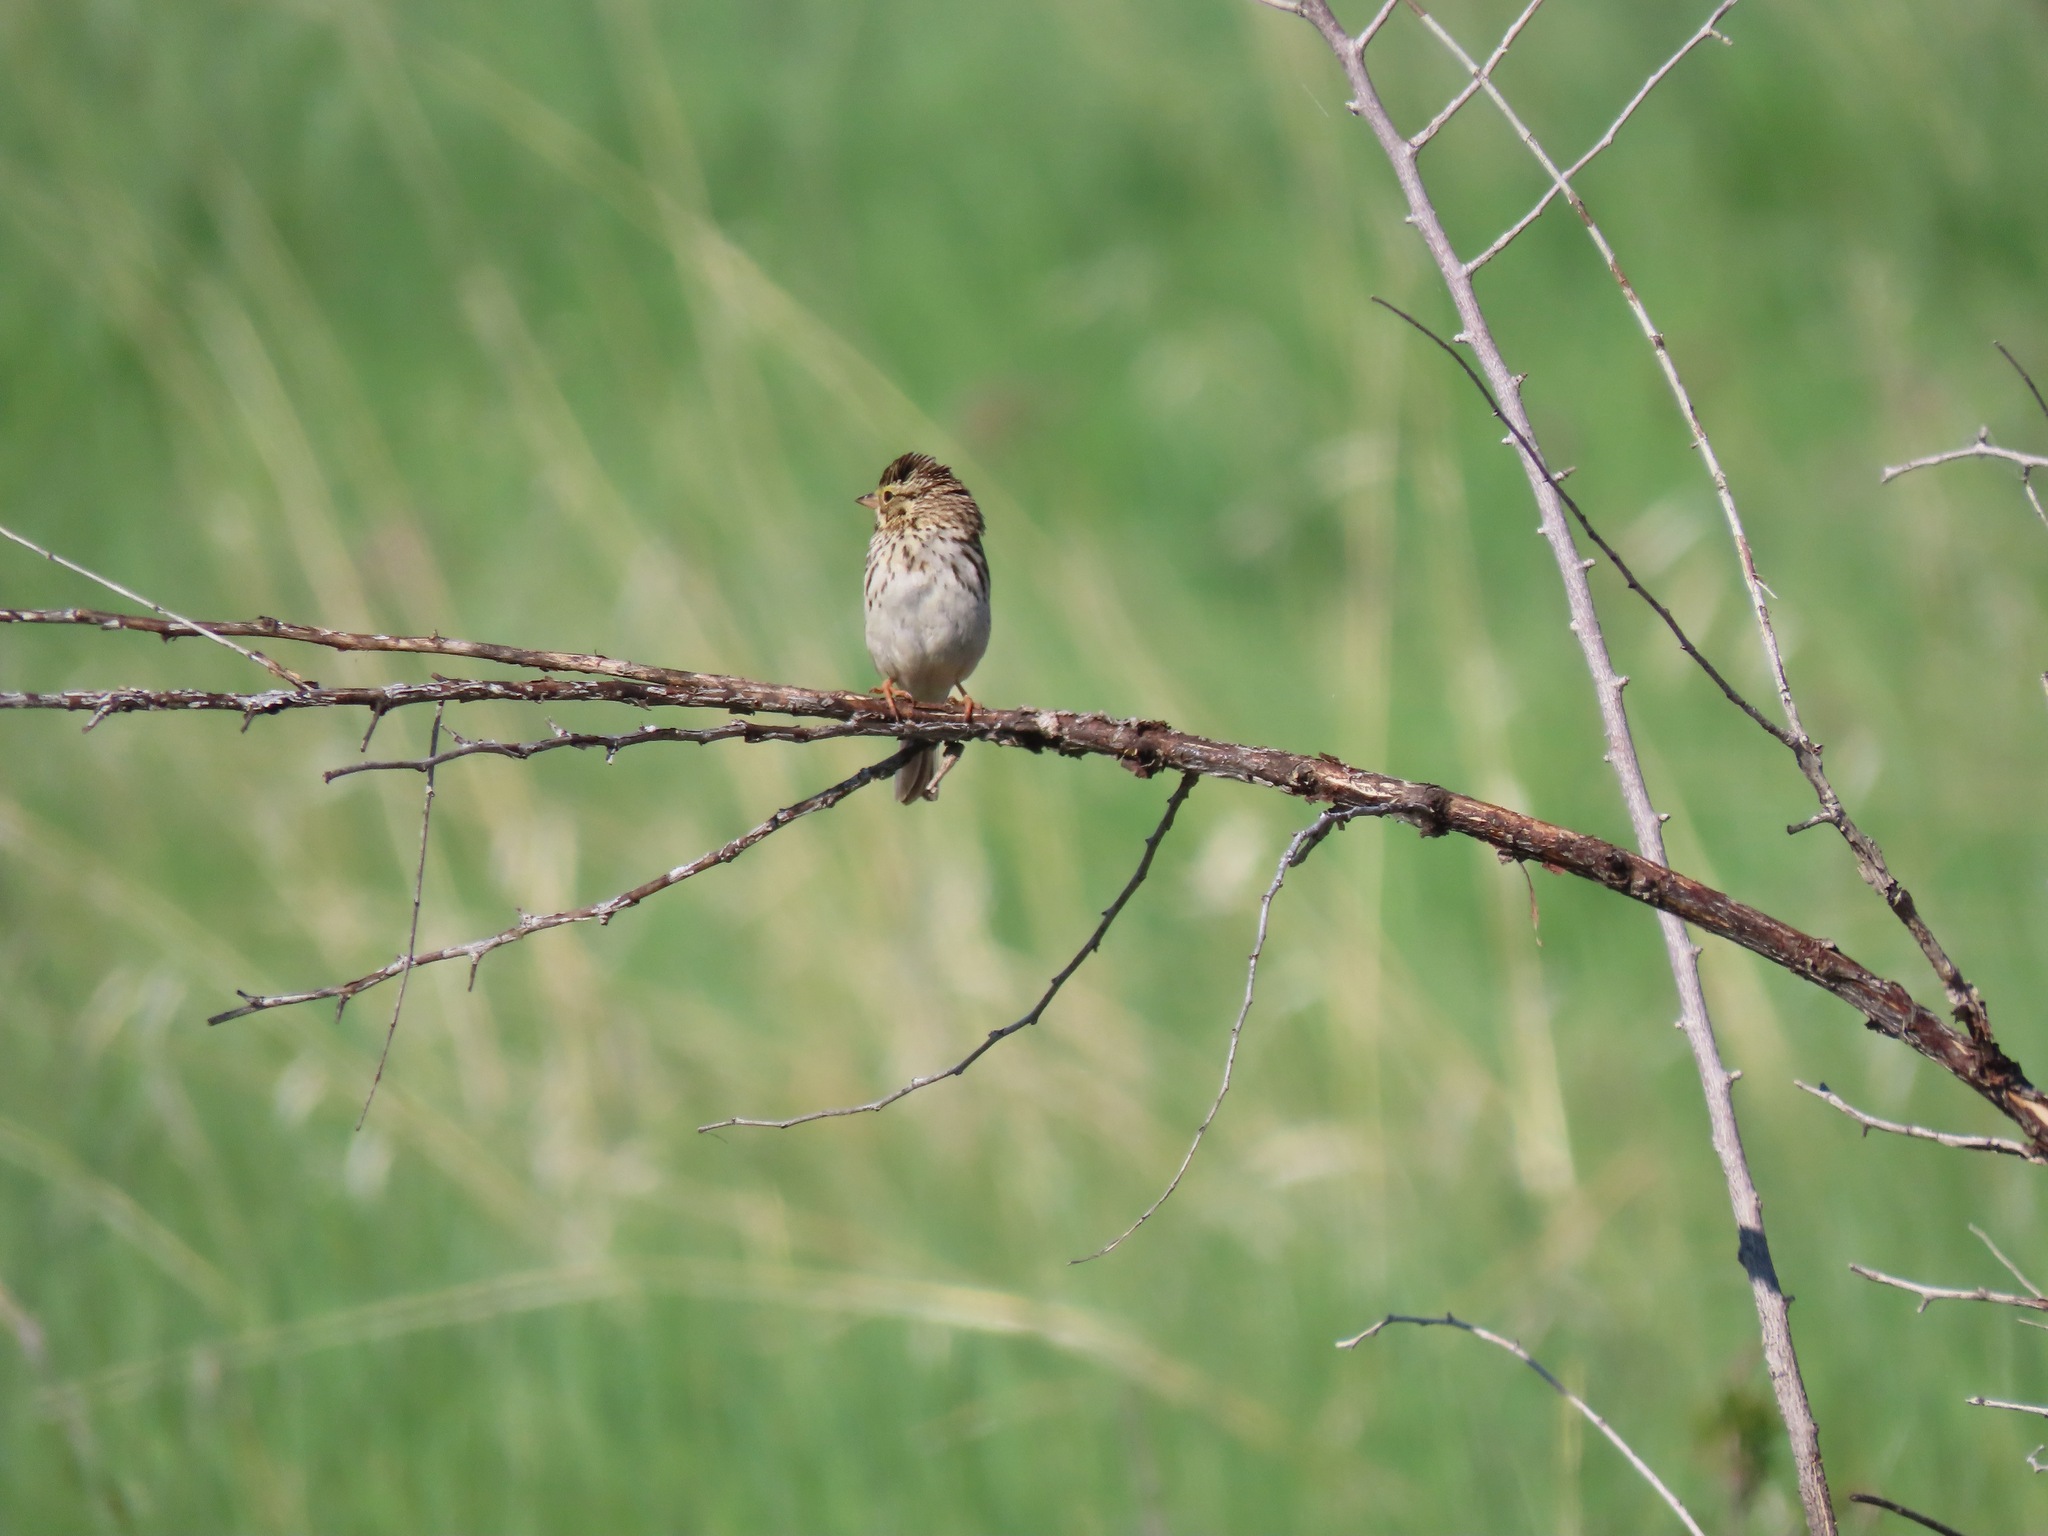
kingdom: Animalia
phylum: Chordata
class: Aves
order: Passeriformes
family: Passerellidae
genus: Passerculus
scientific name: Passerculus sandwichensis
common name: Savannah sparrow
